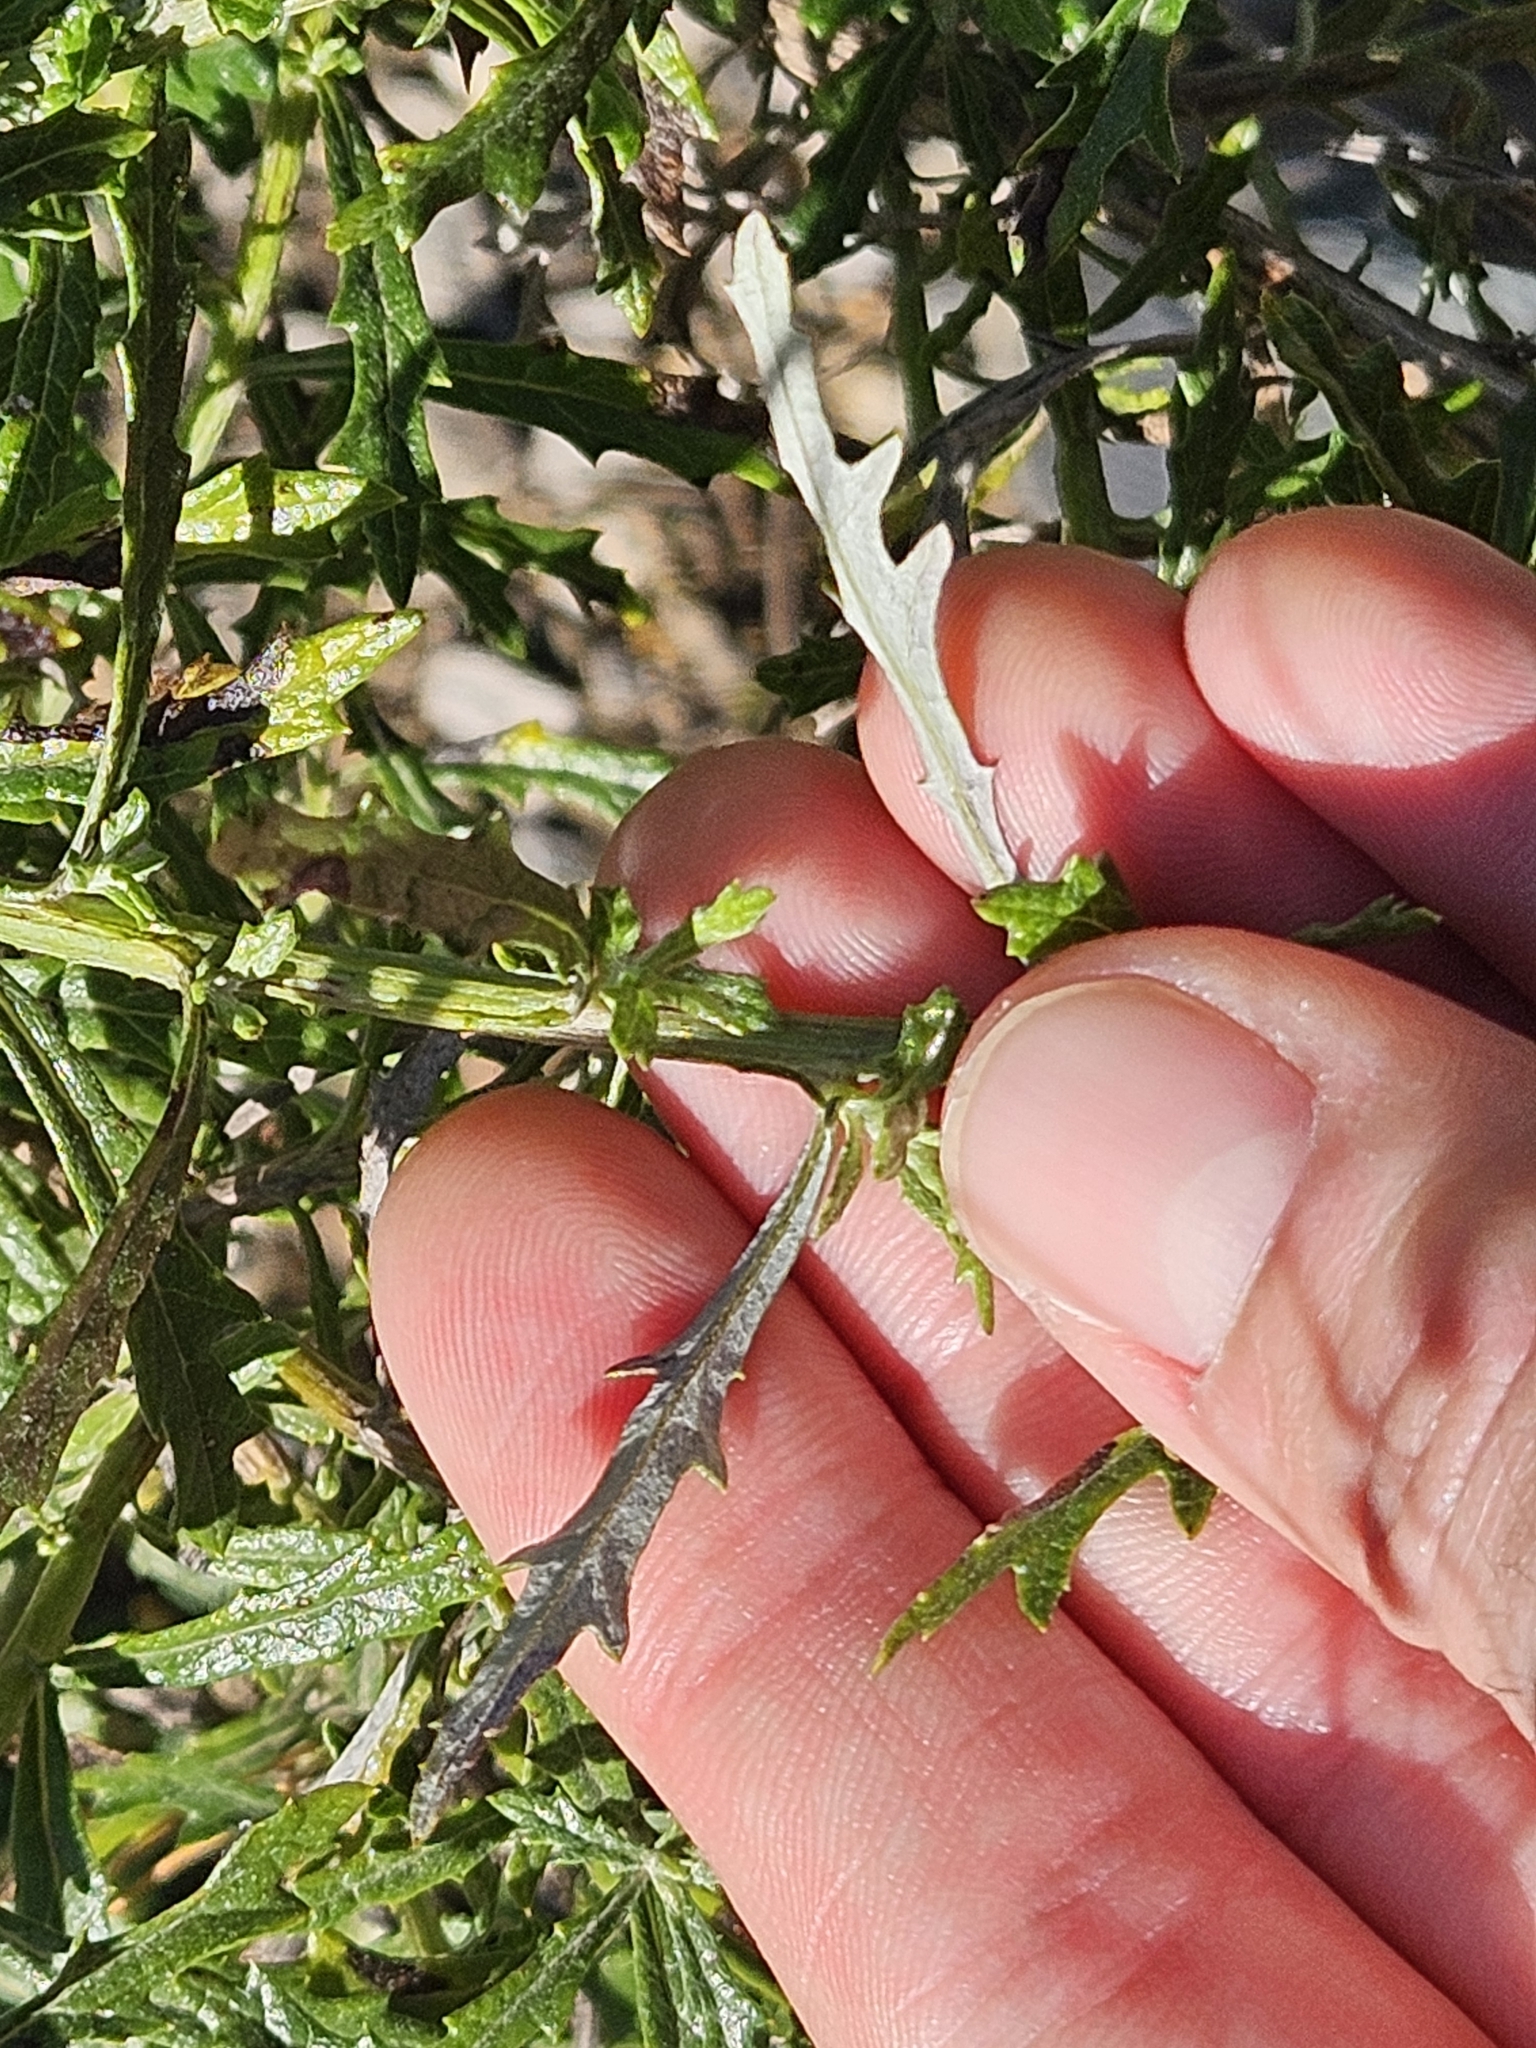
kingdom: Plantae
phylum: Tracheophyta
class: Magnoliopsida
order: Asterales
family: Asteraceae
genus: Senecio
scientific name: Senecio pterophorus
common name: Shoddy ragwort
